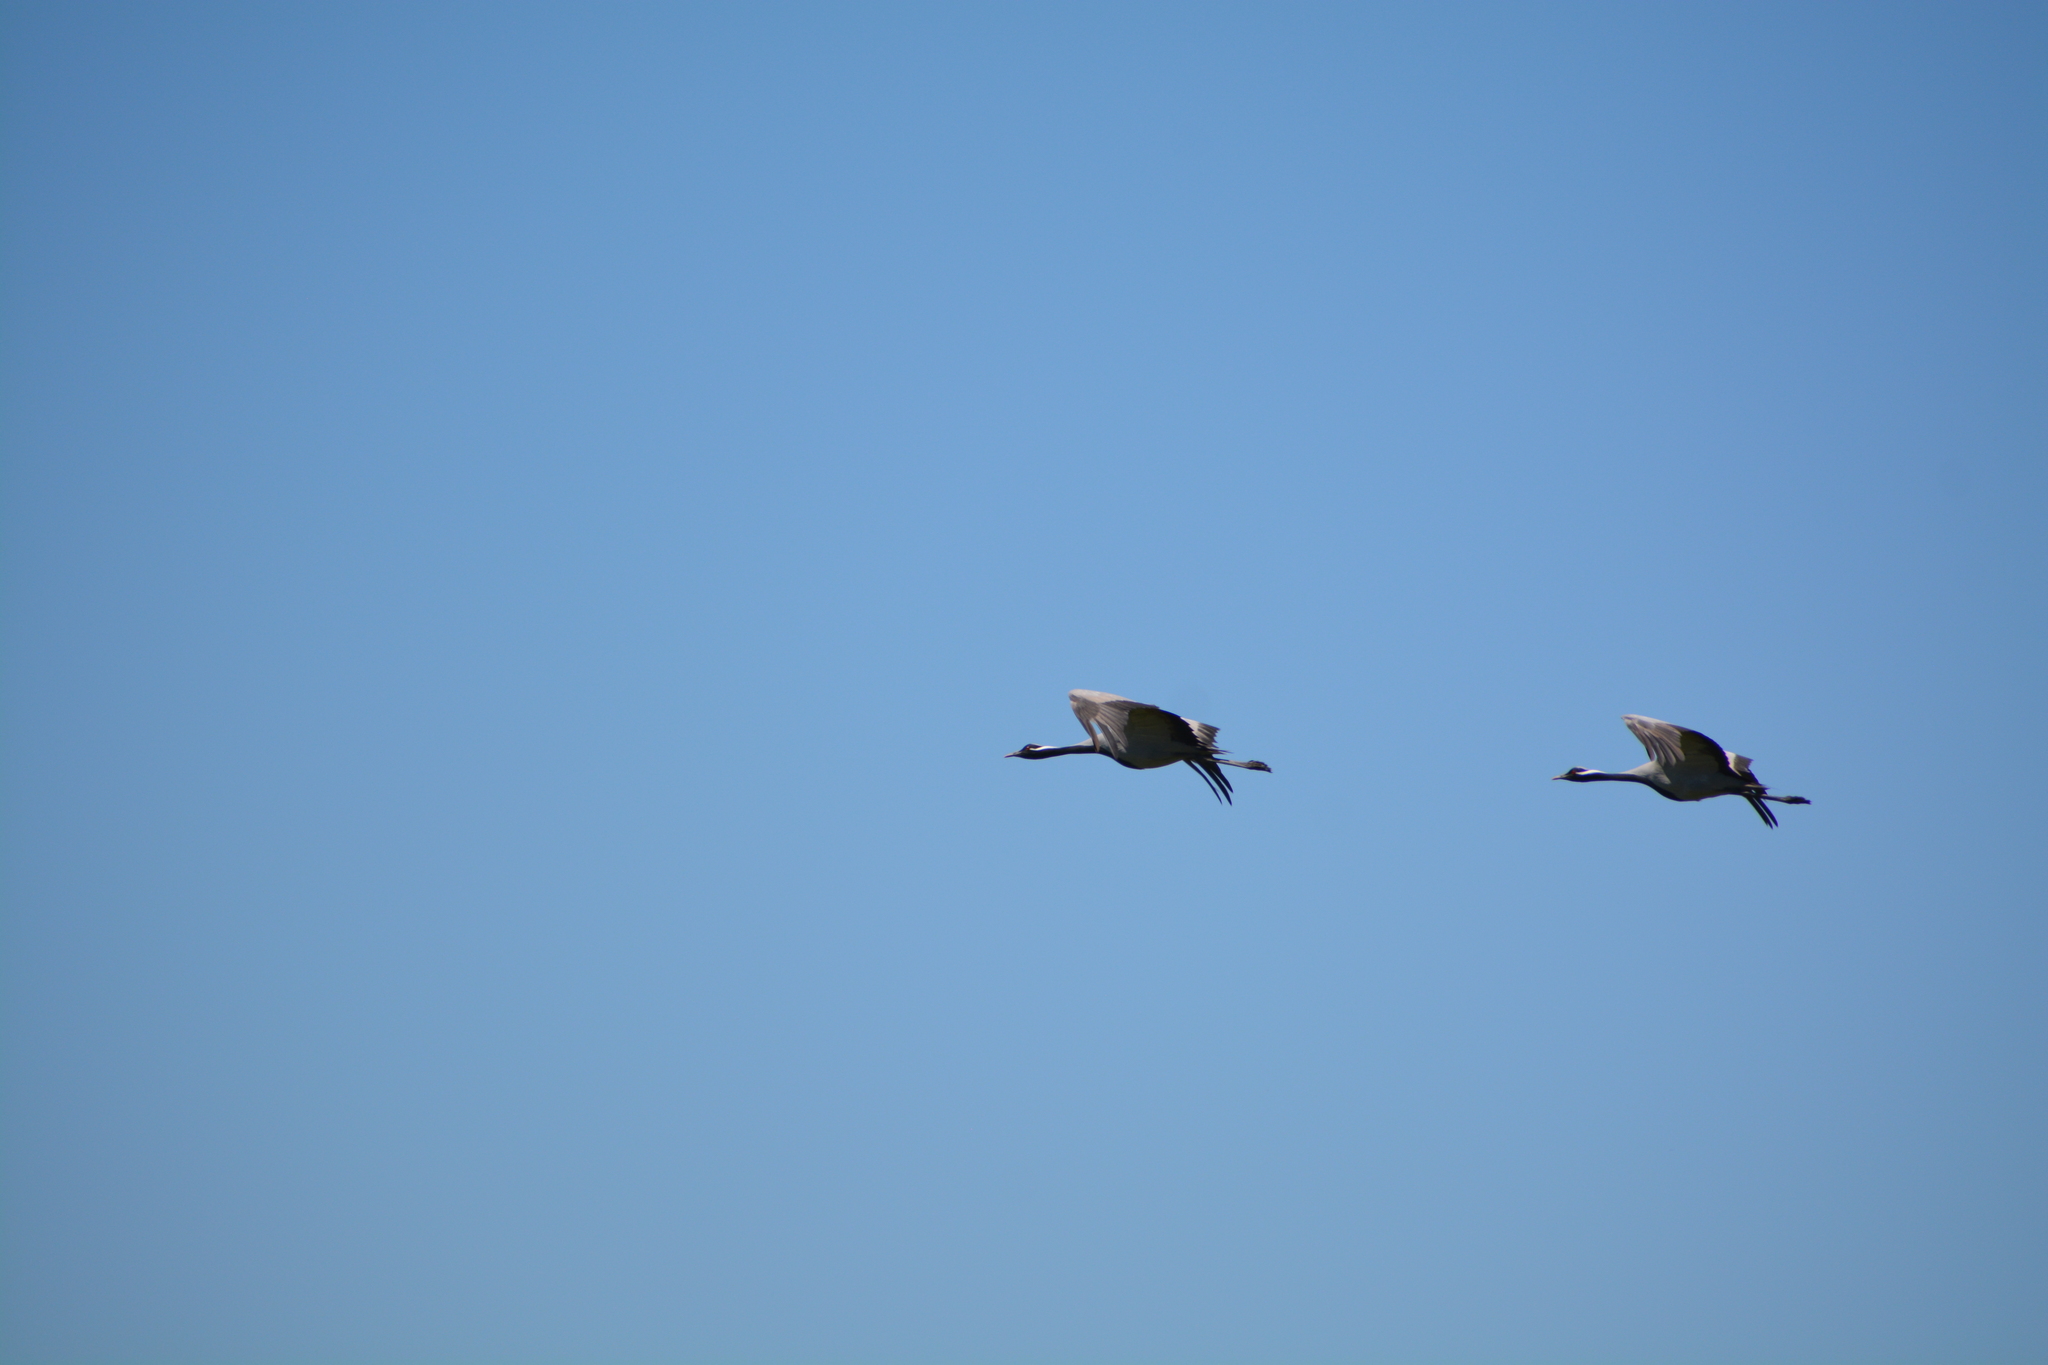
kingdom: Animalia
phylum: Chordata
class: Aves
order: Gruiformes
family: Gruidae
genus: Anthropoides
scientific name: Anthropoides virgo
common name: Demoiselle crane
